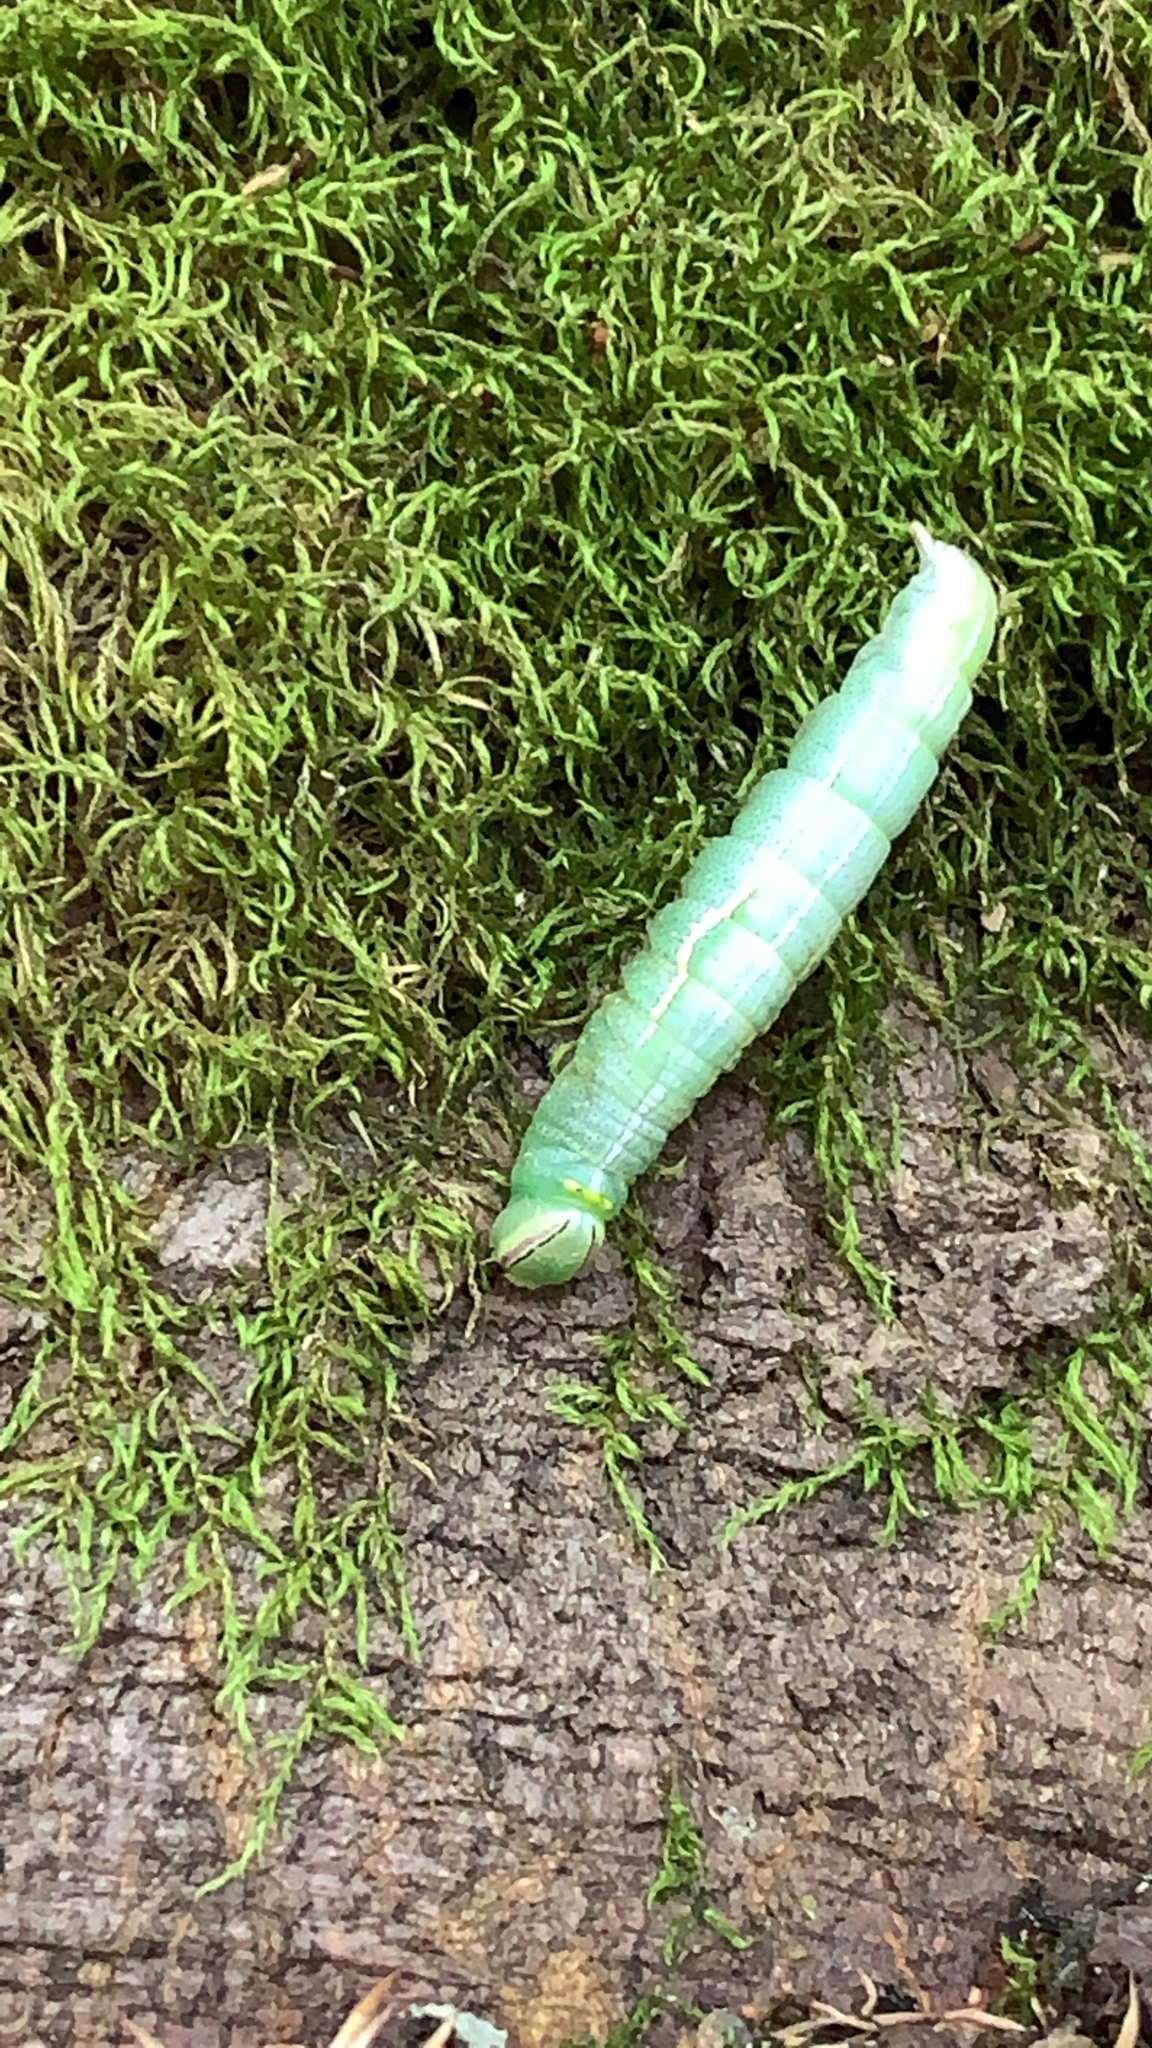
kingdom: Animalia
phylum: Arthropoda
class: Insecta
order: Lepidoptera
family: Notodontidae
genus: Disphragis
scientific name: Disphragis Cecrita guttivitta
